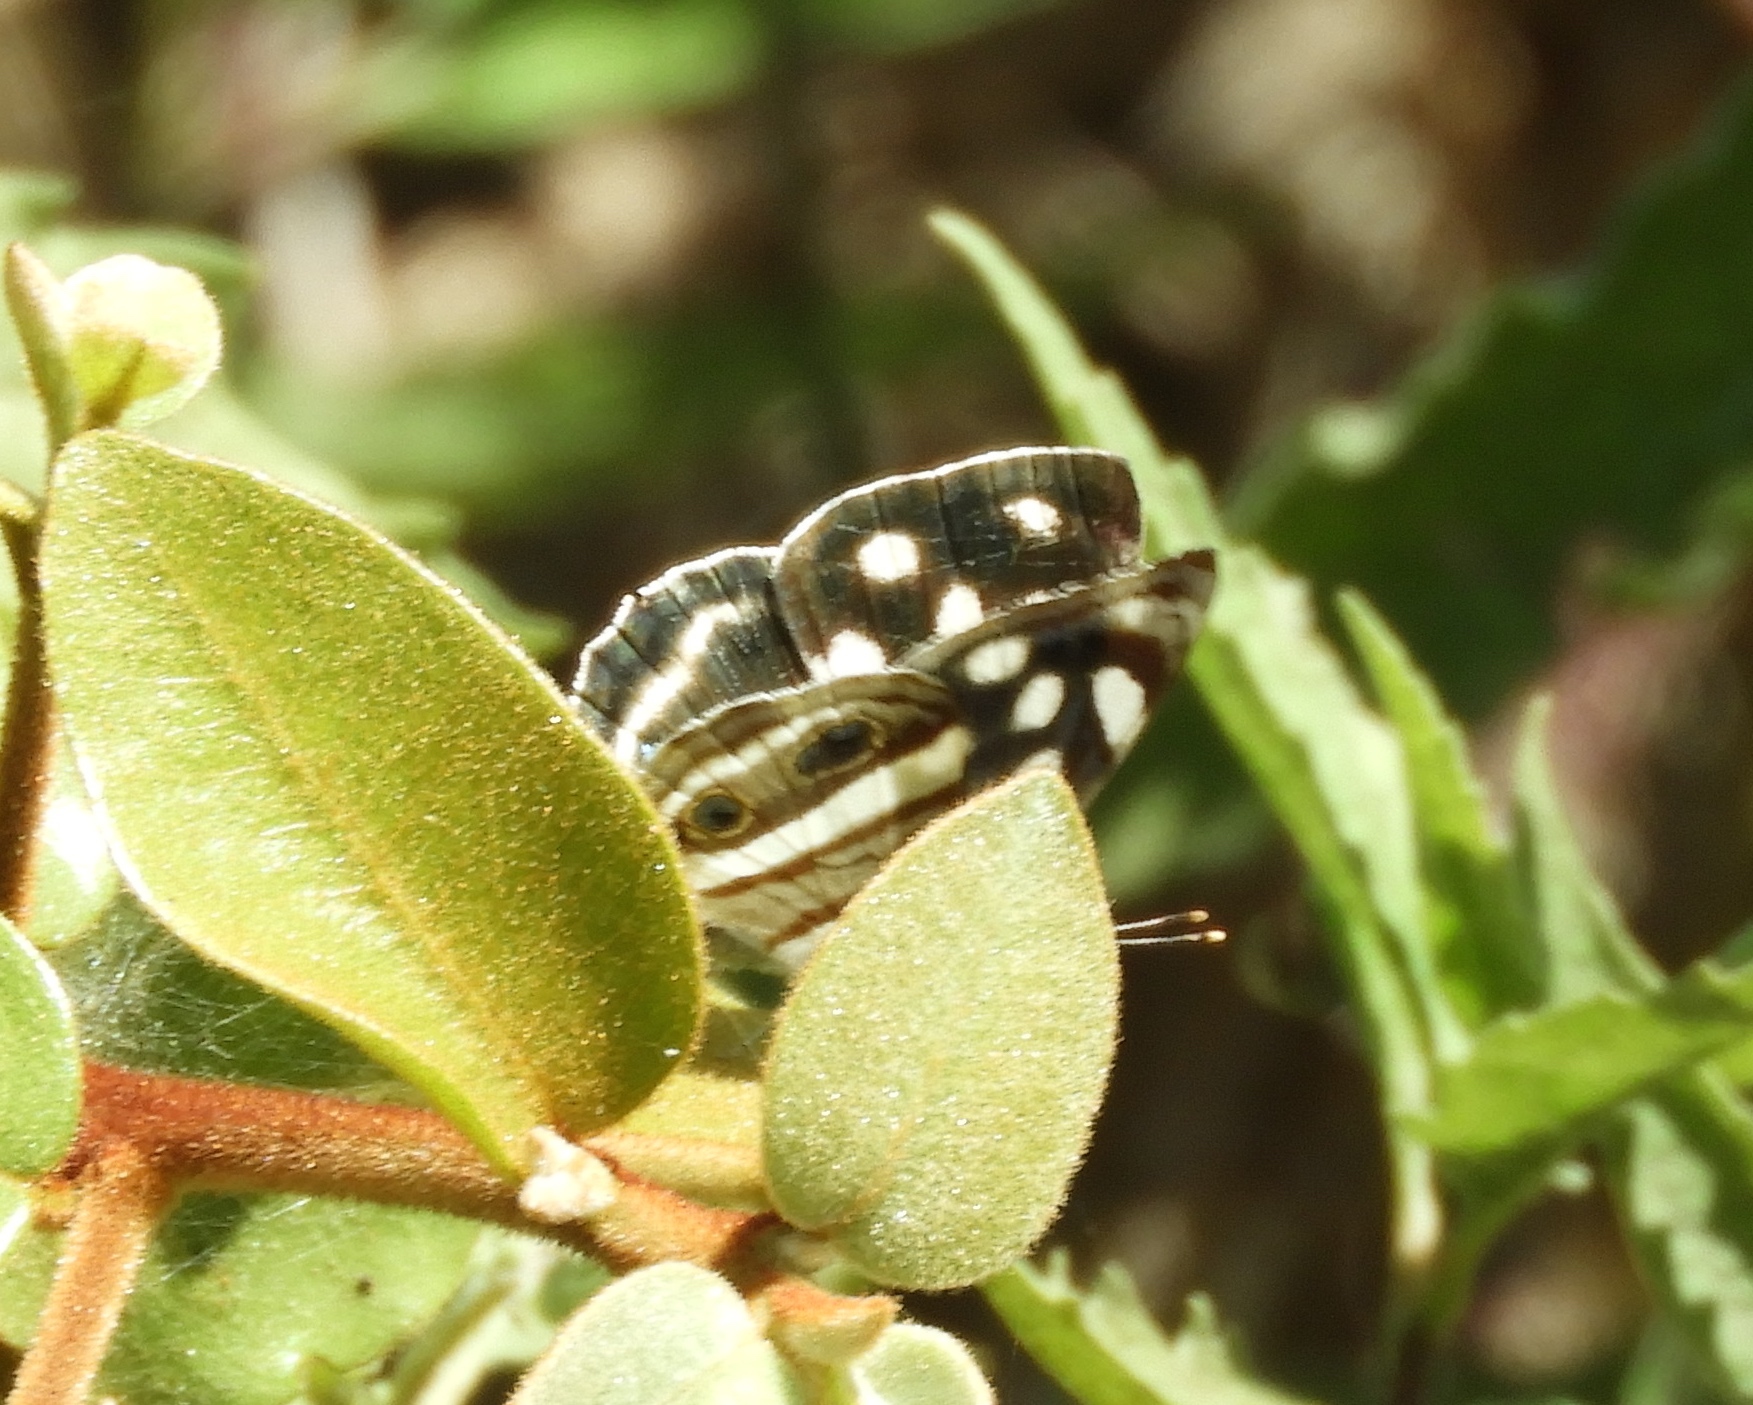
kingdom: Animalia
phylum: Arthropoda
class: Insecta
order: Lepidoptera
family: Nymphalidae
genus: Dynamine
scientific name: Dynamine mylitta
